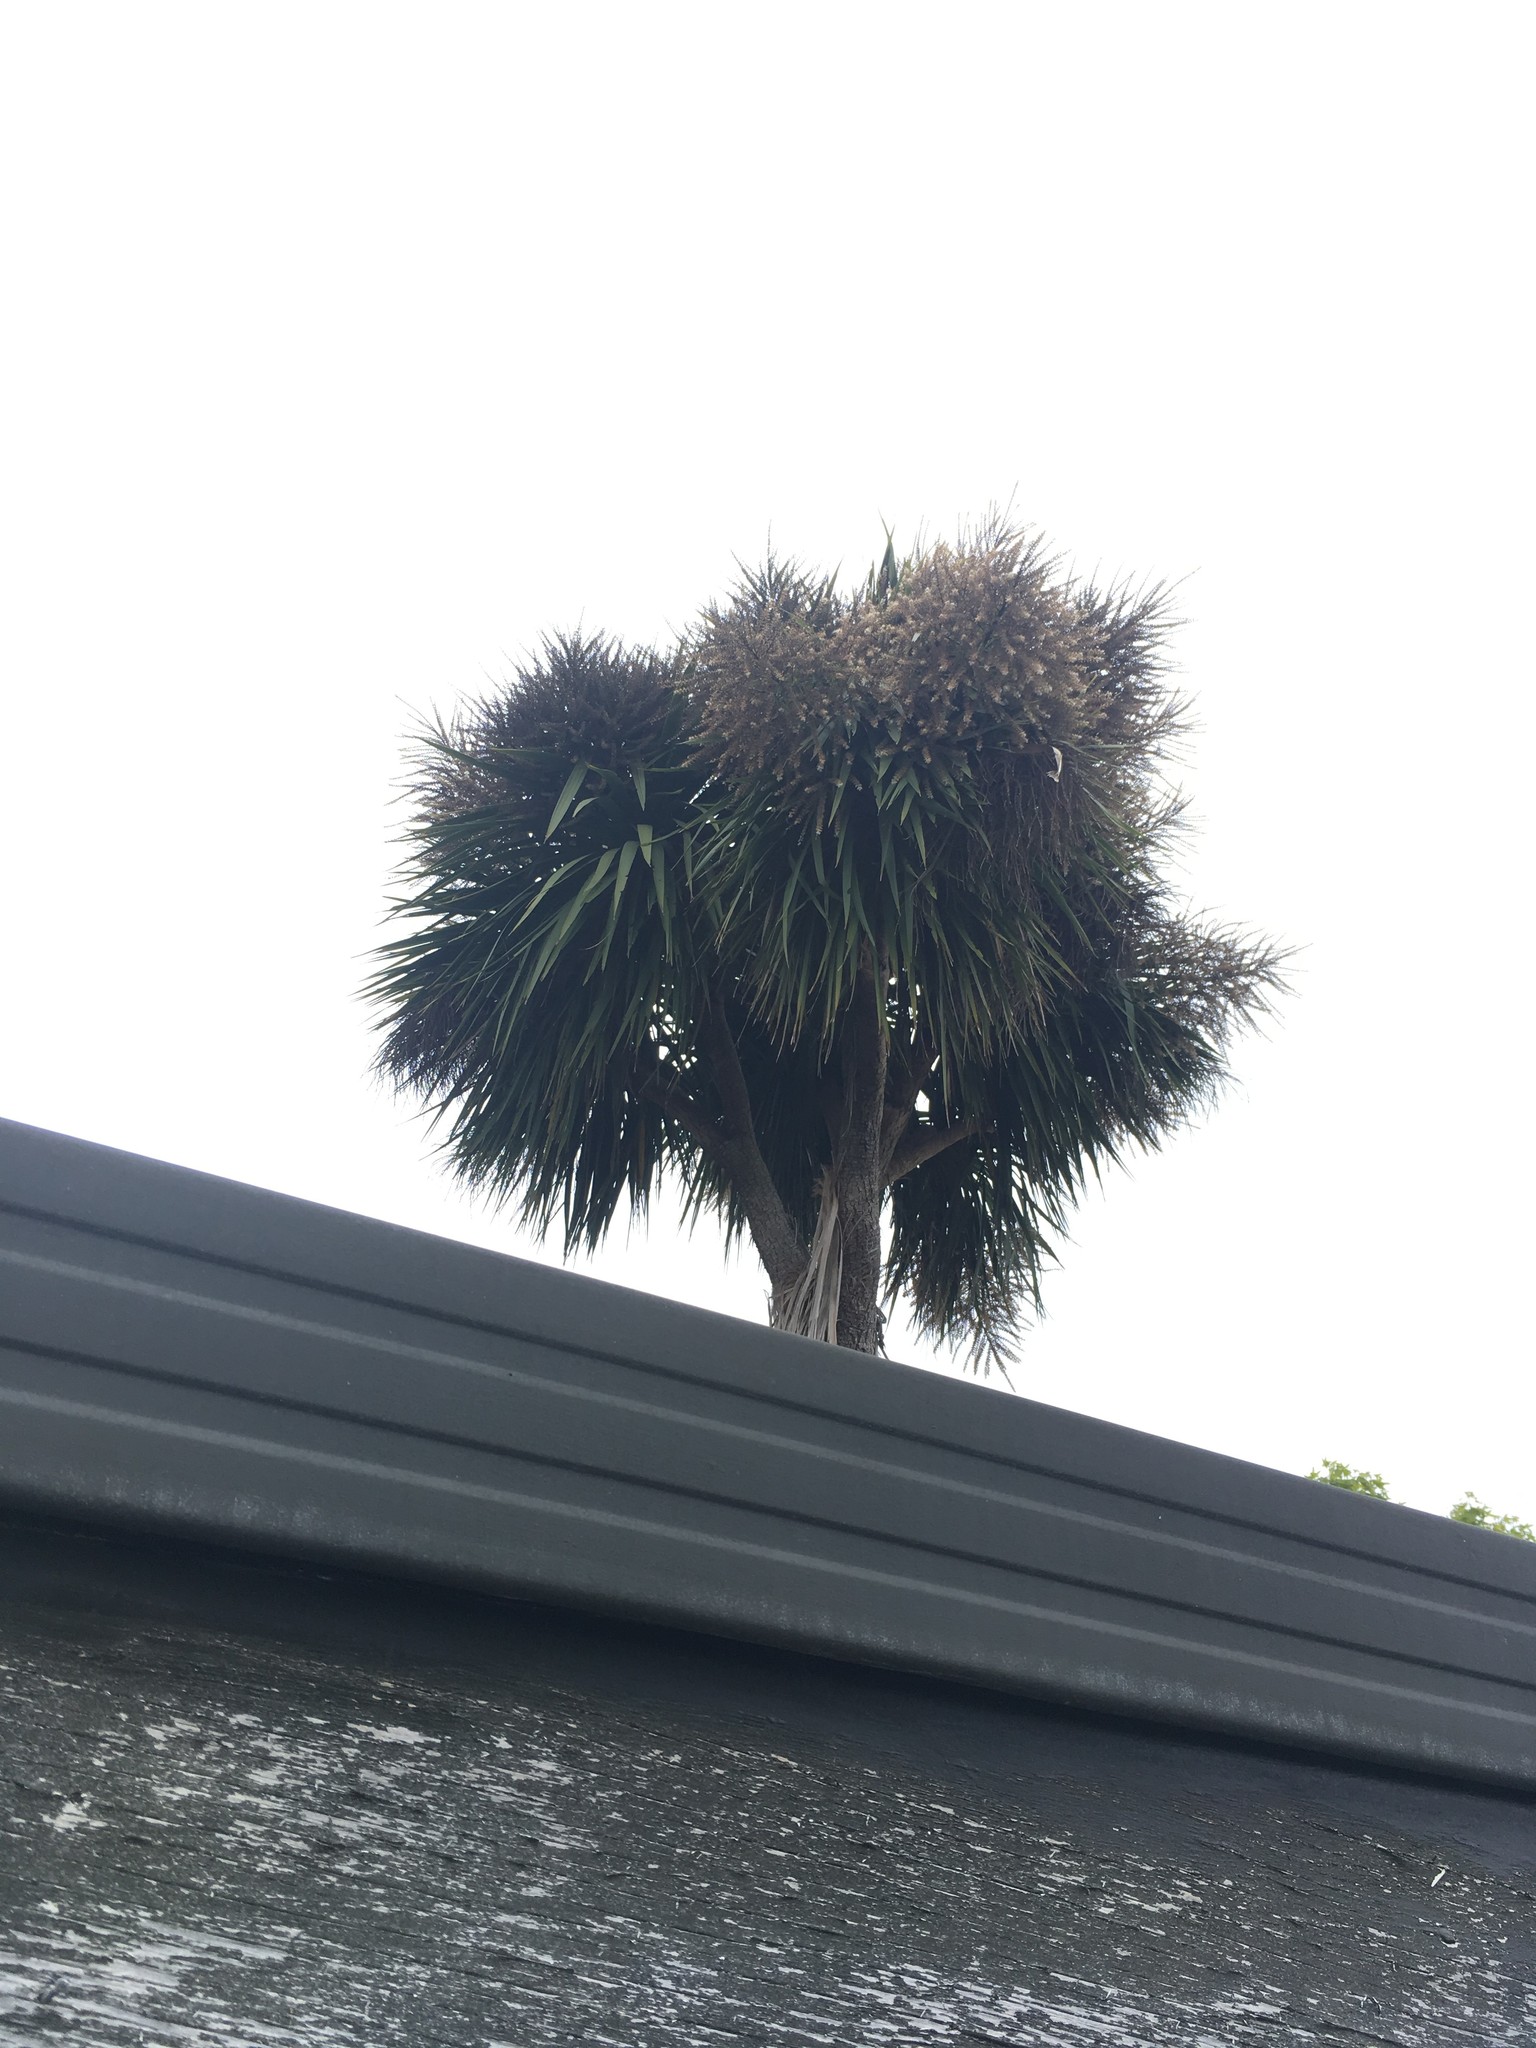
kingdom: Plantae
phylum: Tracheophyta
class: Liliopsida
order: Asparagales
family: Asparagaceae
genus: Cordyline
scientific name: Cordyline australis
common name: Cabbage-palm
